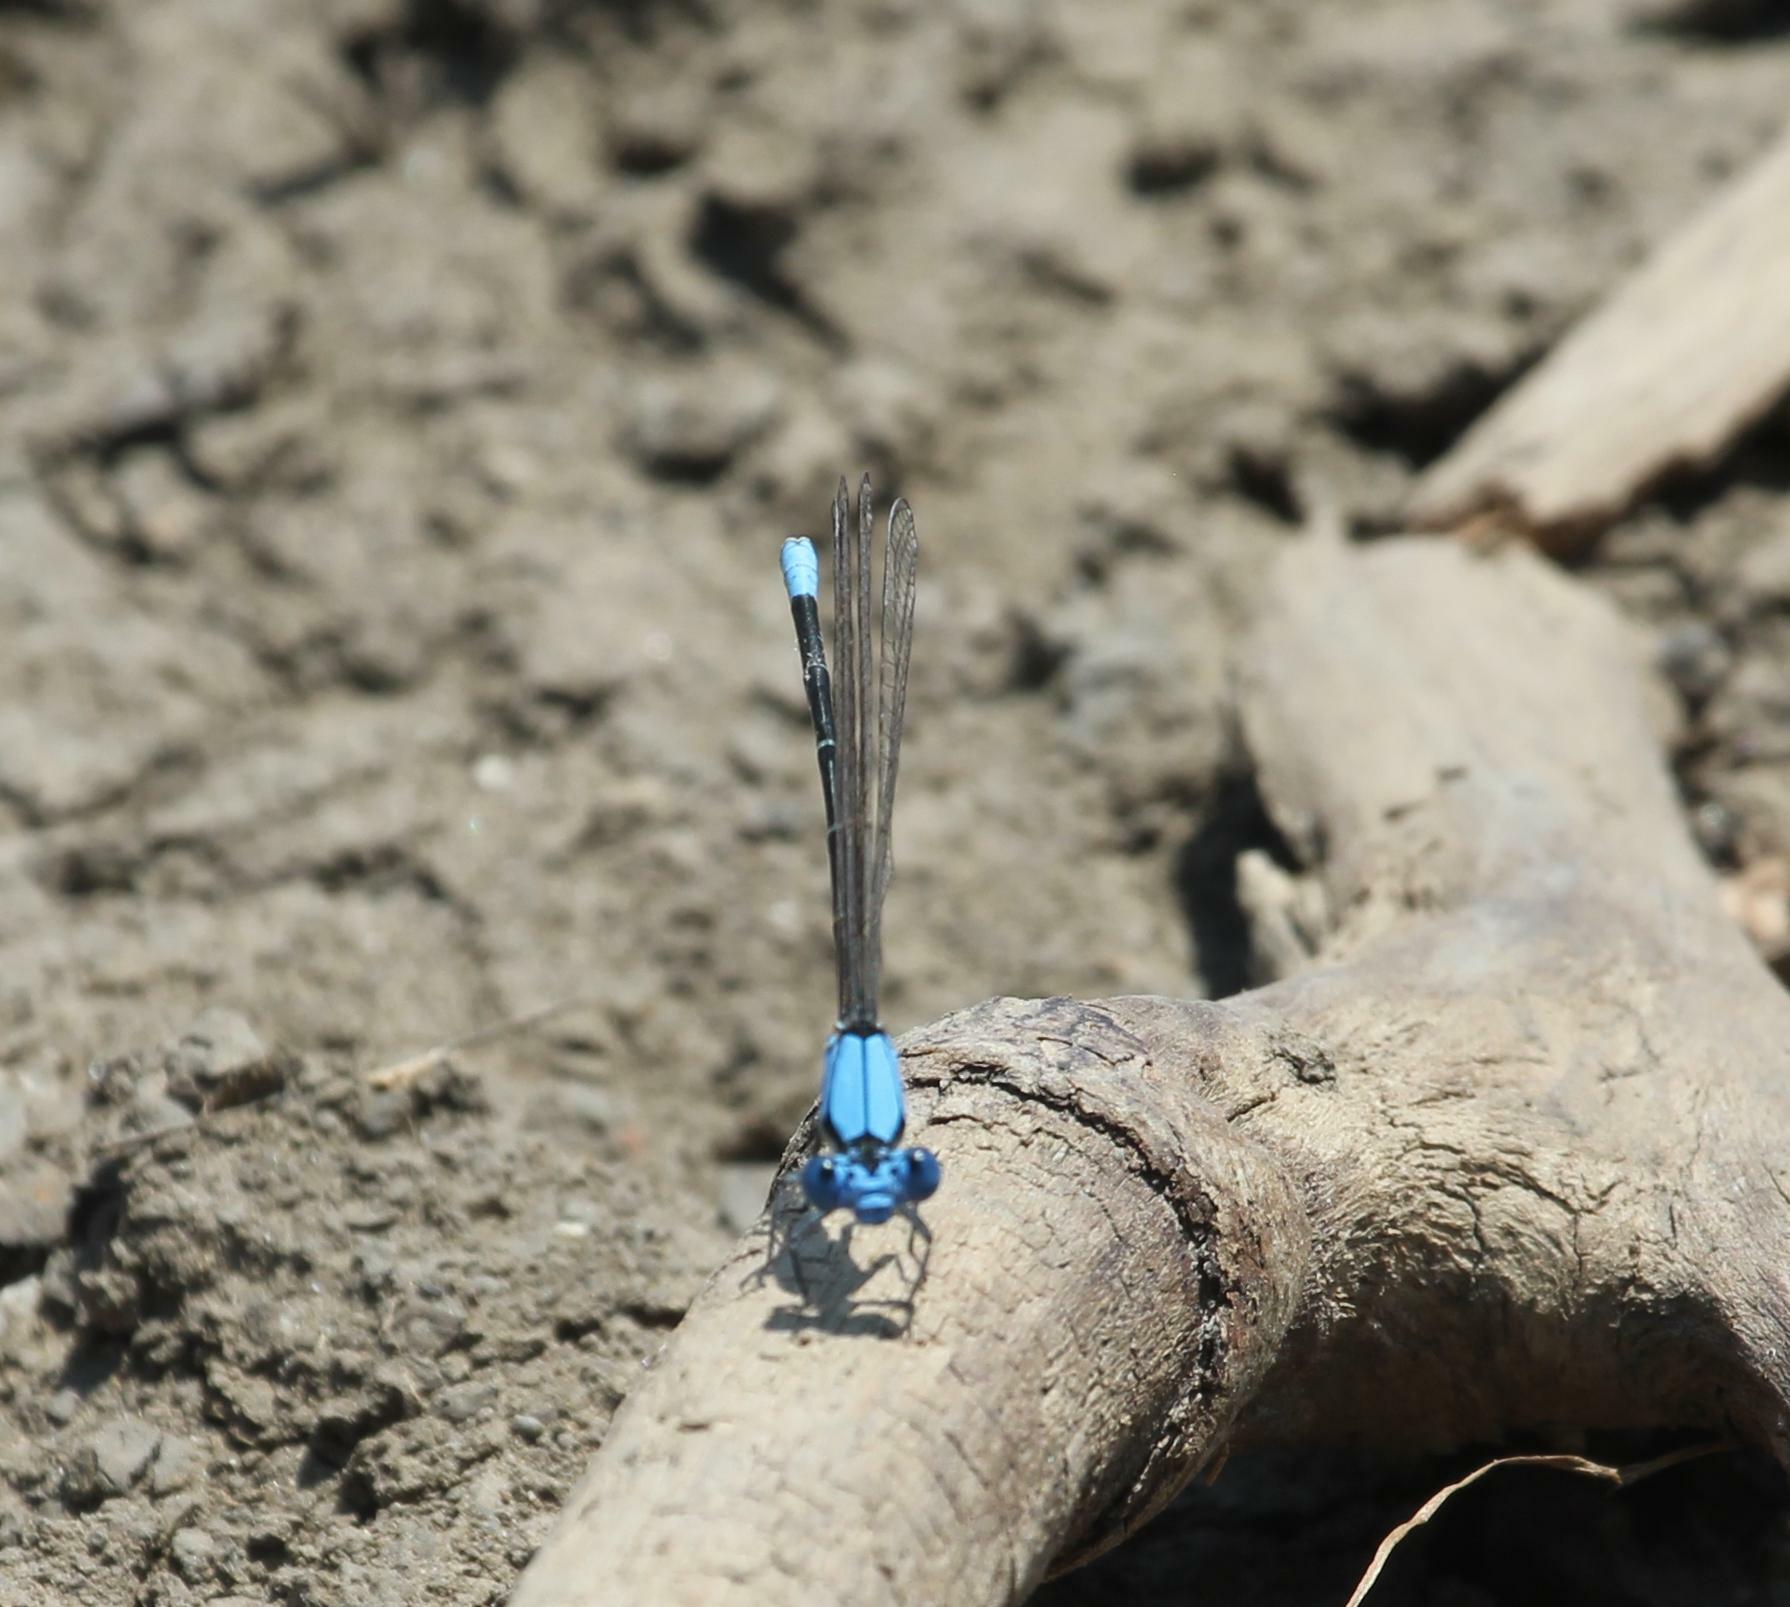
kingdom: Animalia
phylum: Arthropoda
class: Insecta
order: Odonata
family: Coenagrionidae
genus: Argia
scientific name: Argia apicalis
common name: Blue-fronted dancer
